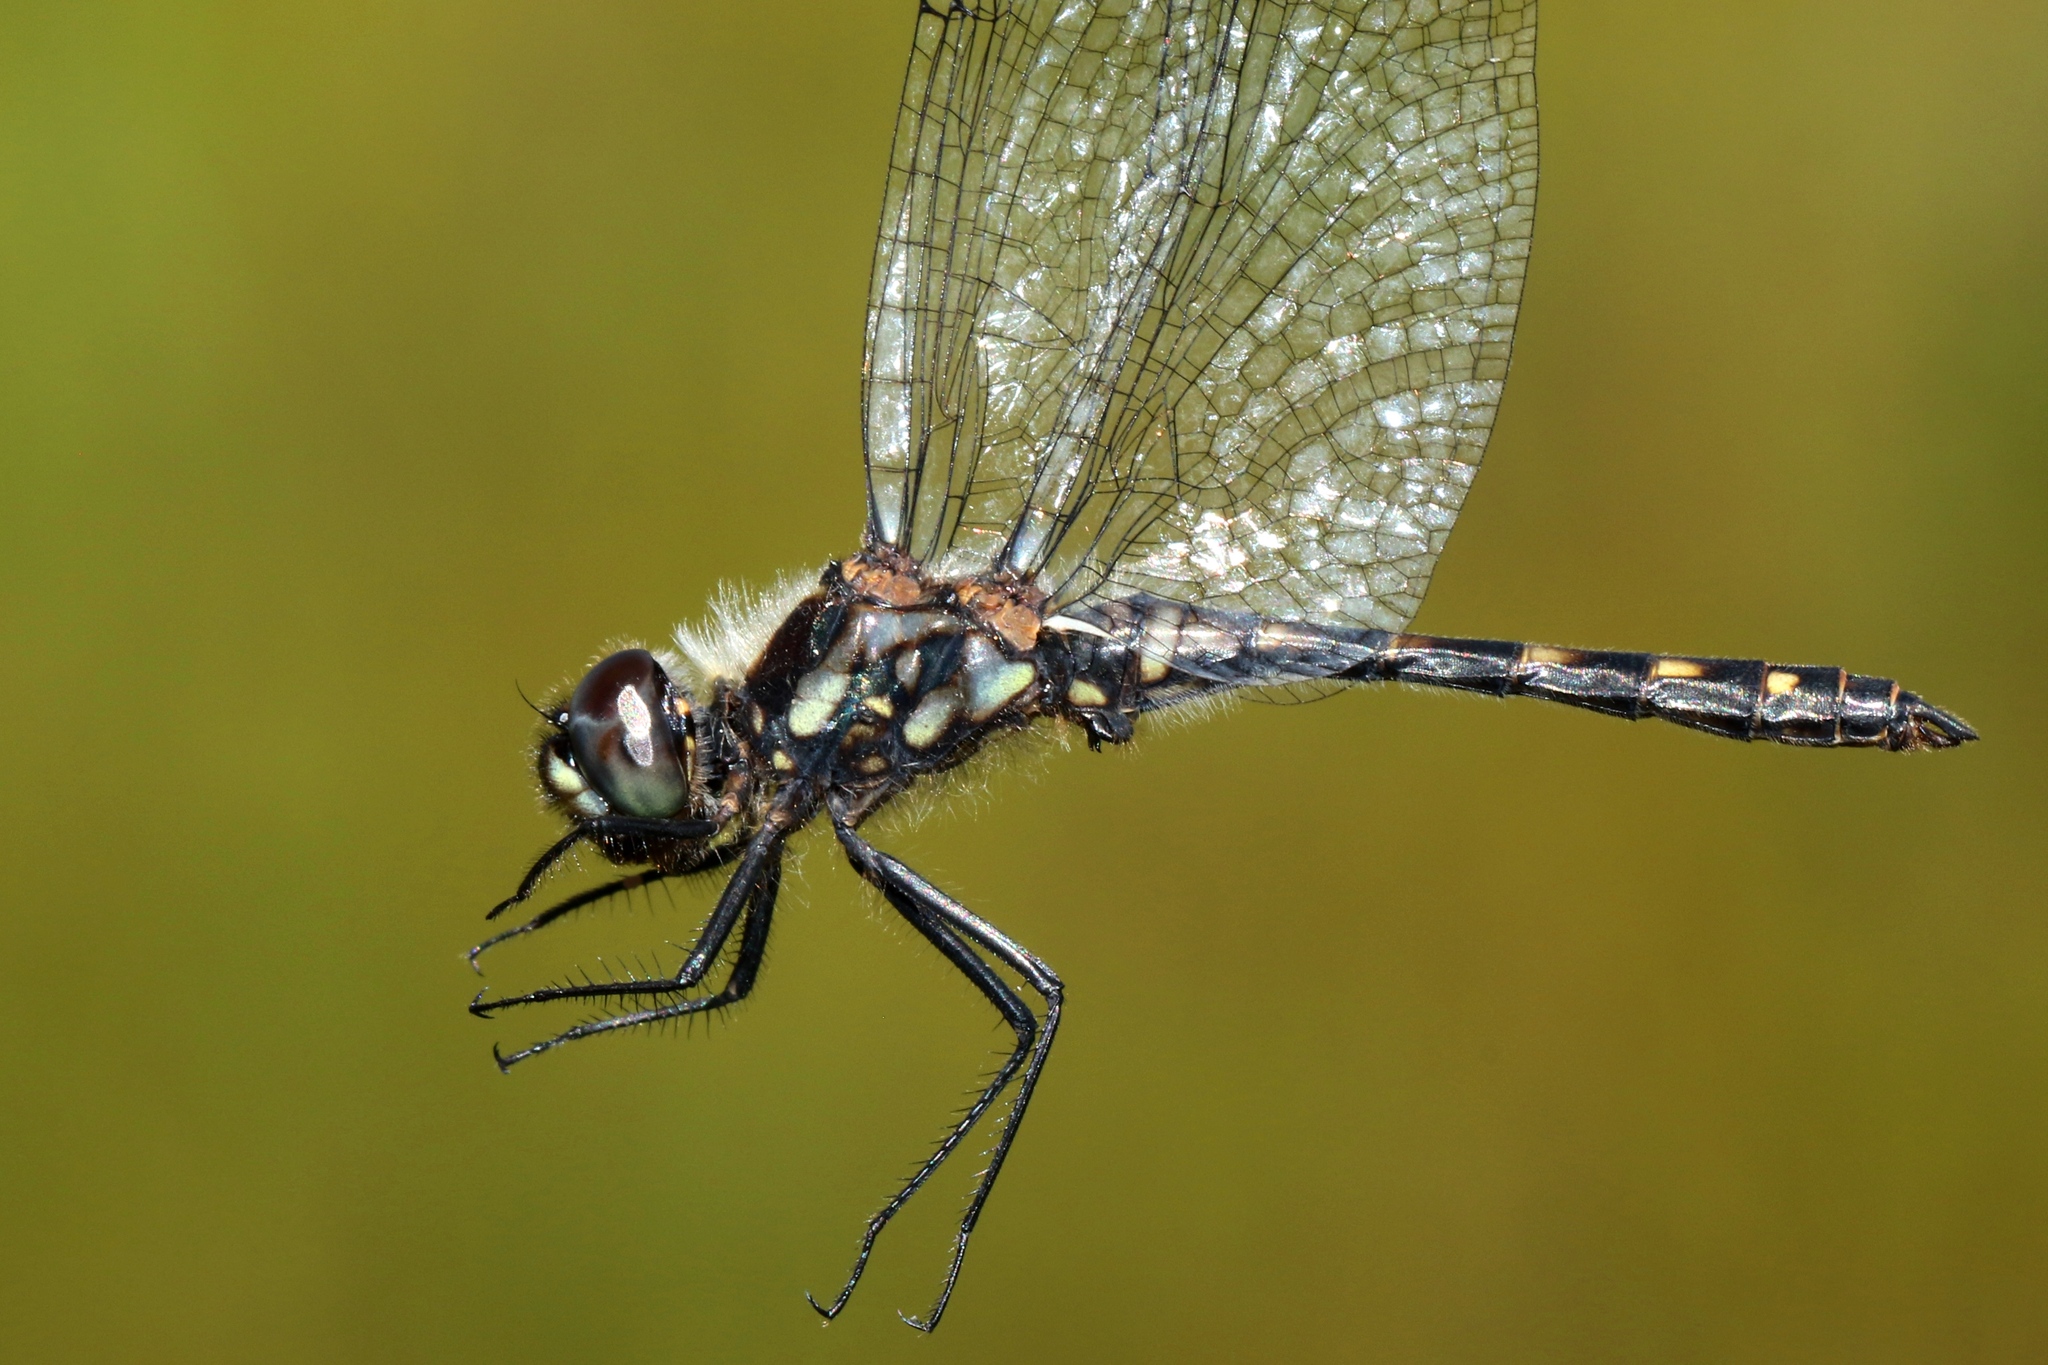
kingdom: Animalia
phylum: Arthropoda
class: Insecta
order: Odonata
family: Libellulidae
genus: Sympetrum
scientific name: Sympetrum danae
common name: Black darter
